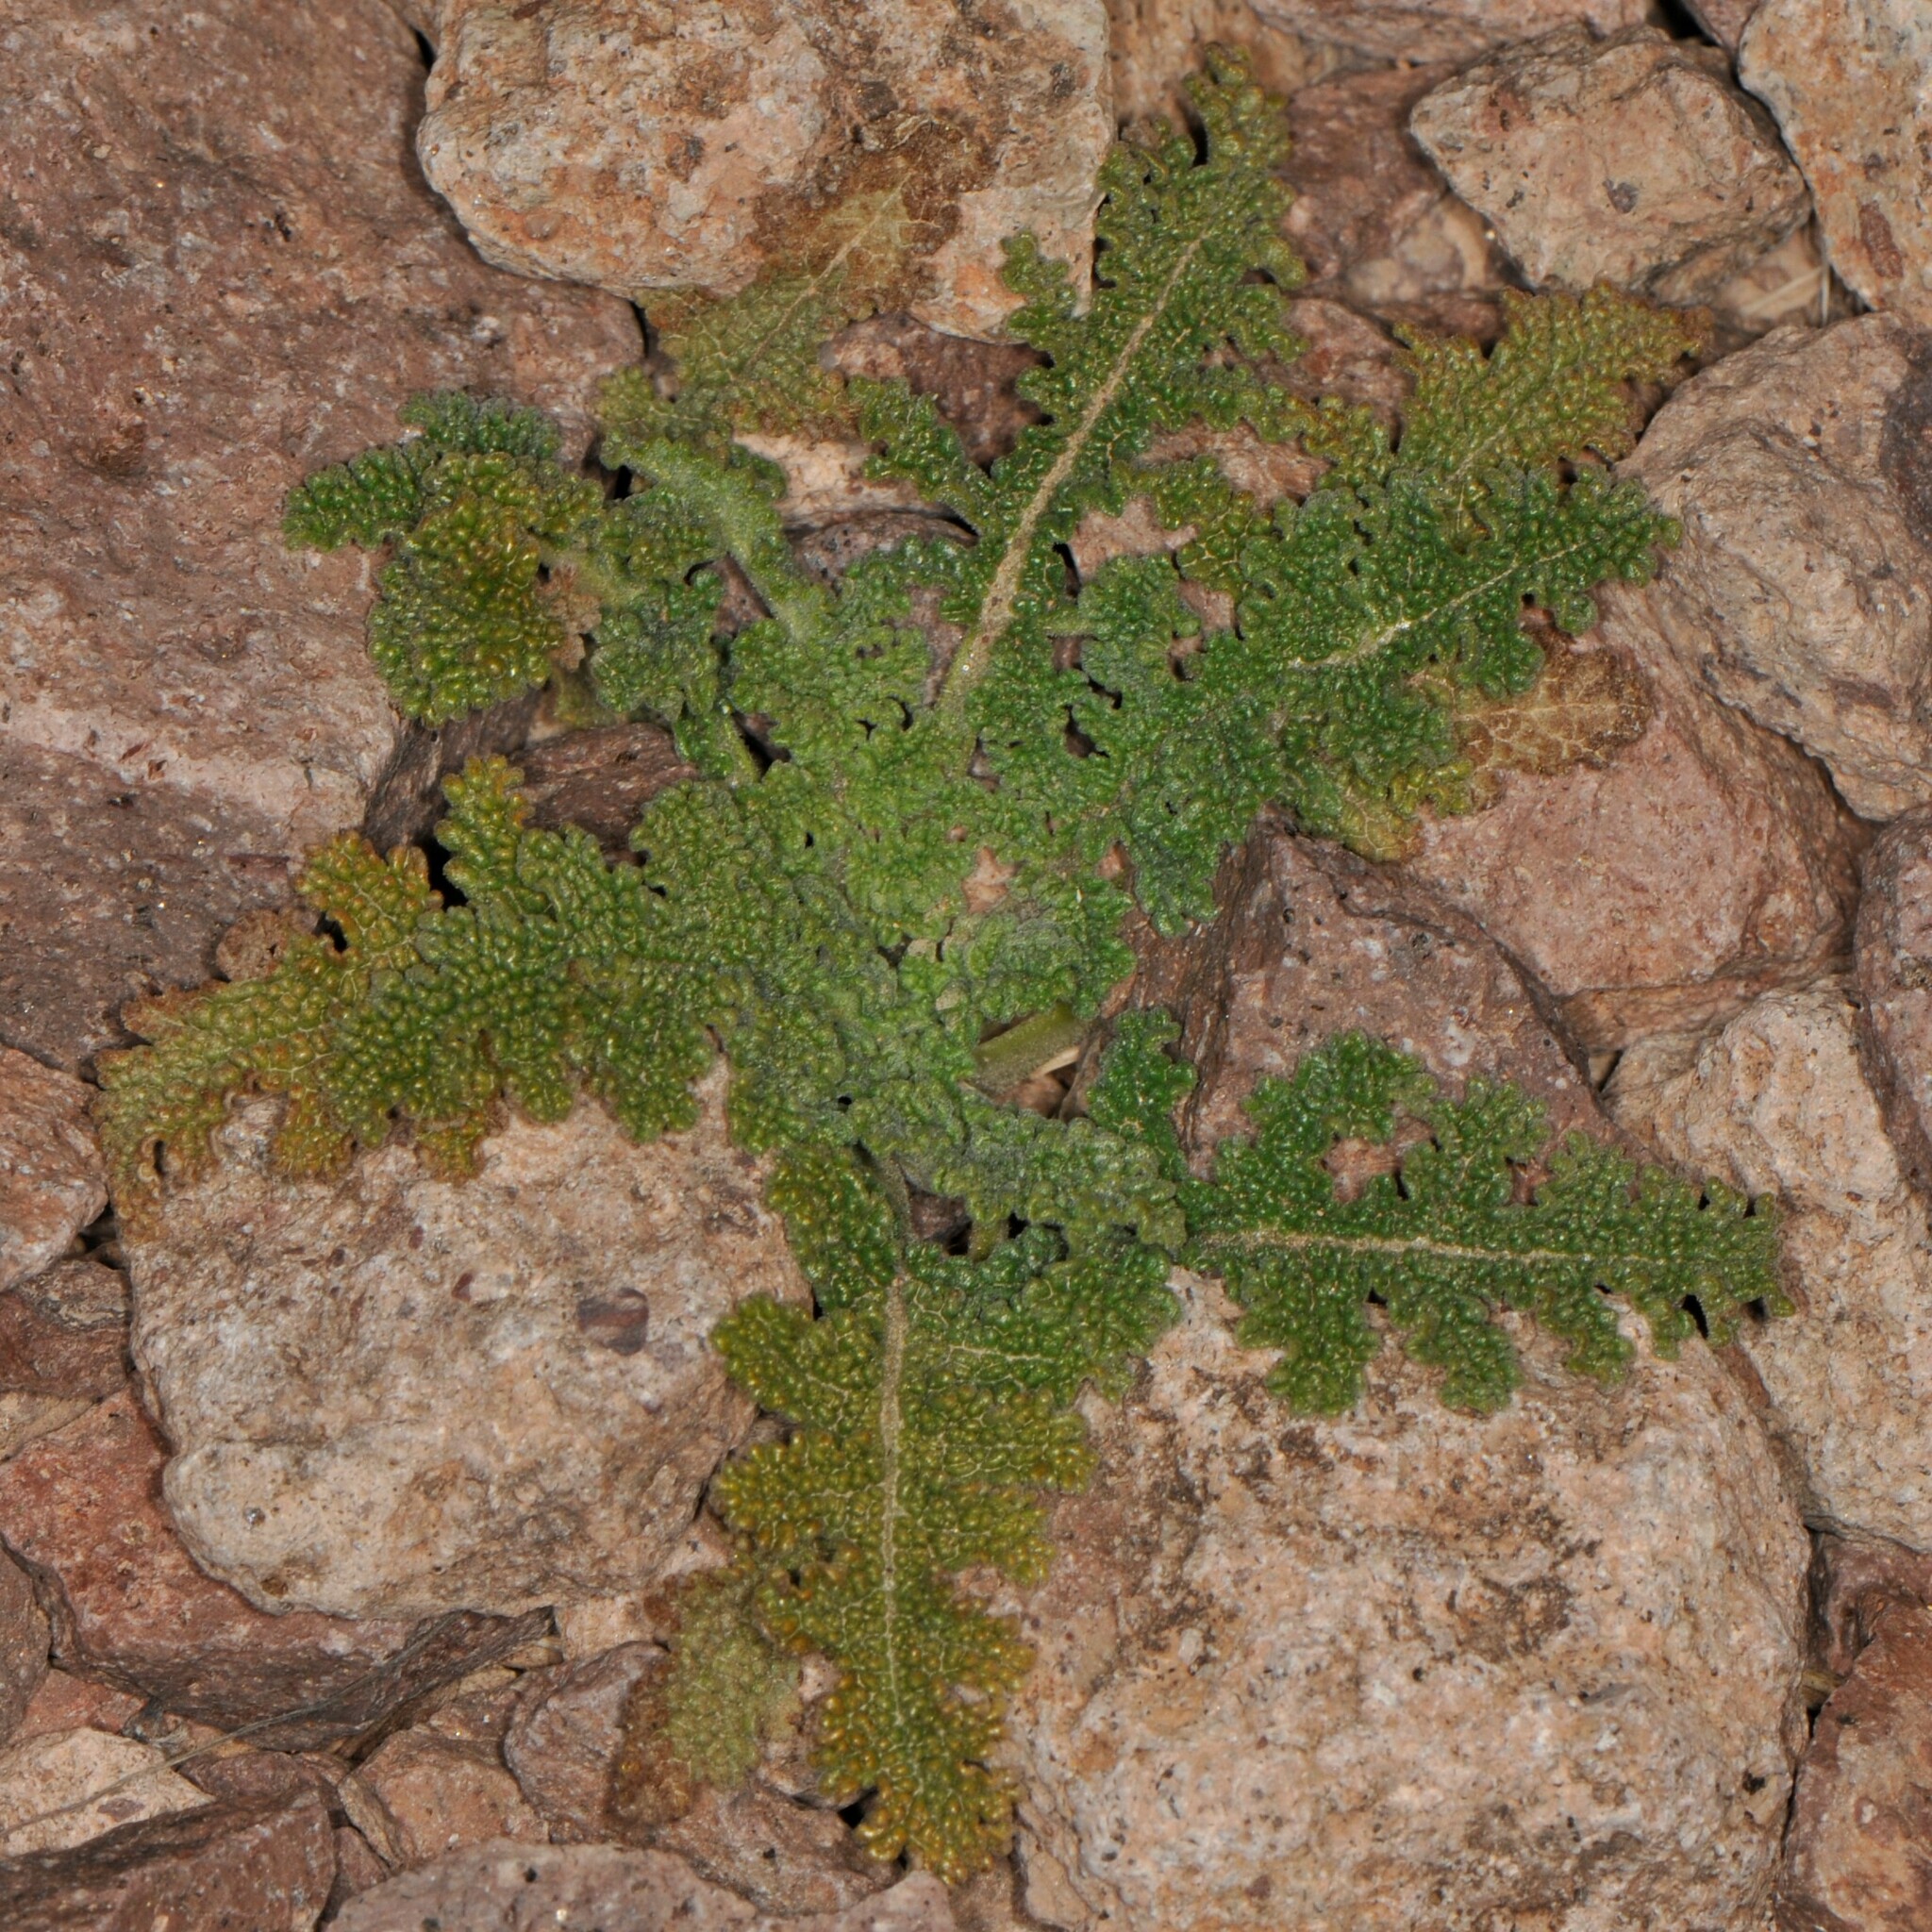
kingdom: Plantae
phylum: Tracheophyta
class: Magnoliopsida
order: Lamiales
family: Lamiaceae
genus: Salvia
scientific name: Salvia columbariae
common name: Chia
